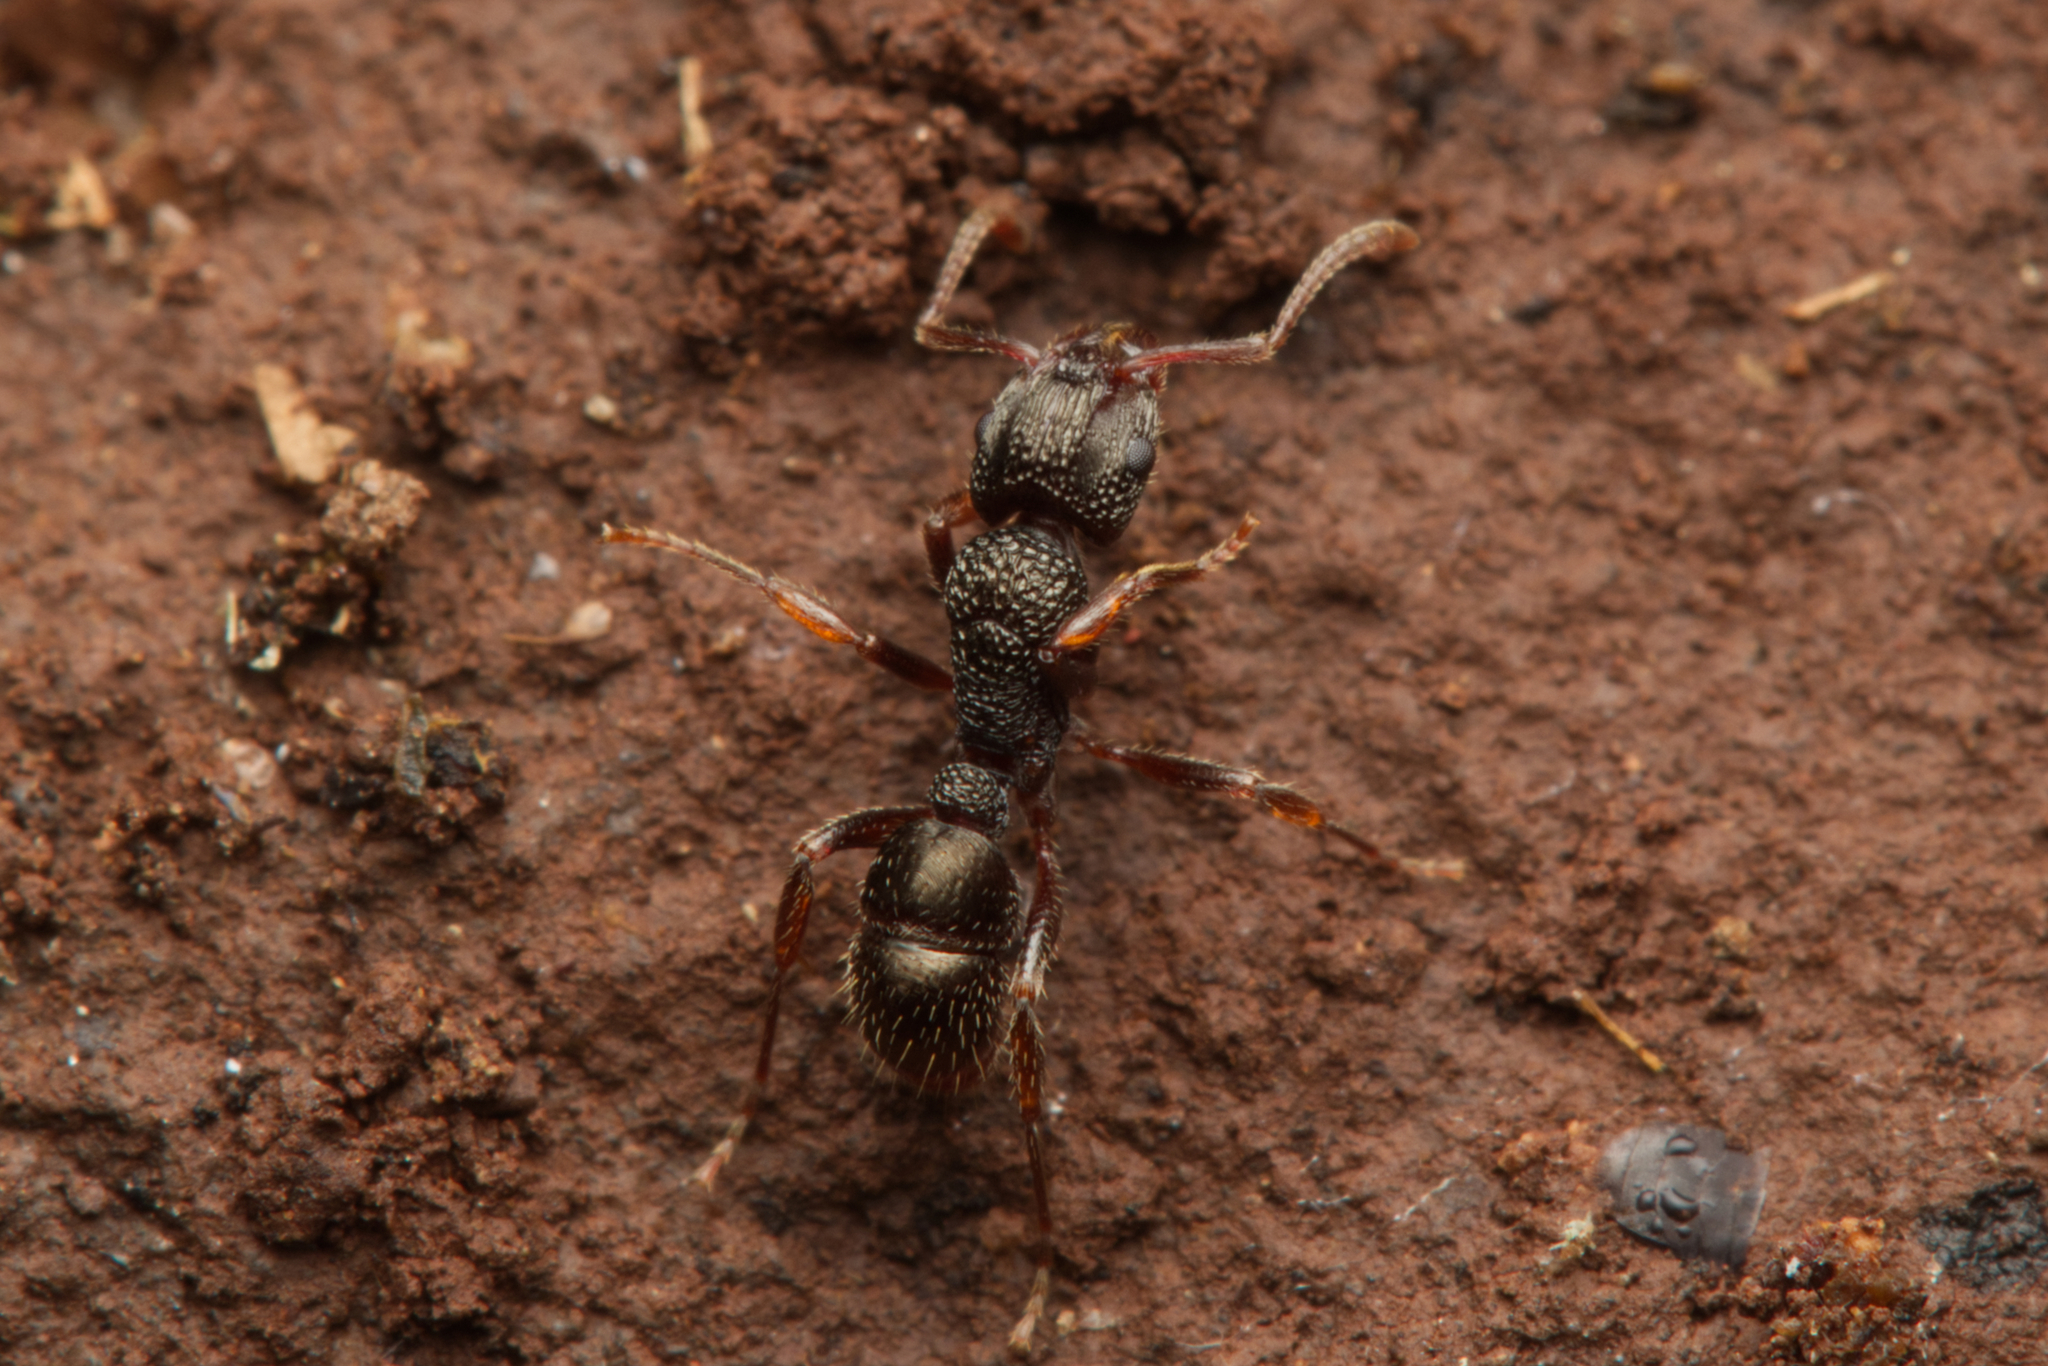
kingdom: Animalia
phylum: Arthropoda
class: Insecta
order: Hymenoptera
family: Formicidae
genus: Rhytidoponera
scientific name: Rhytidoponera victoriae
